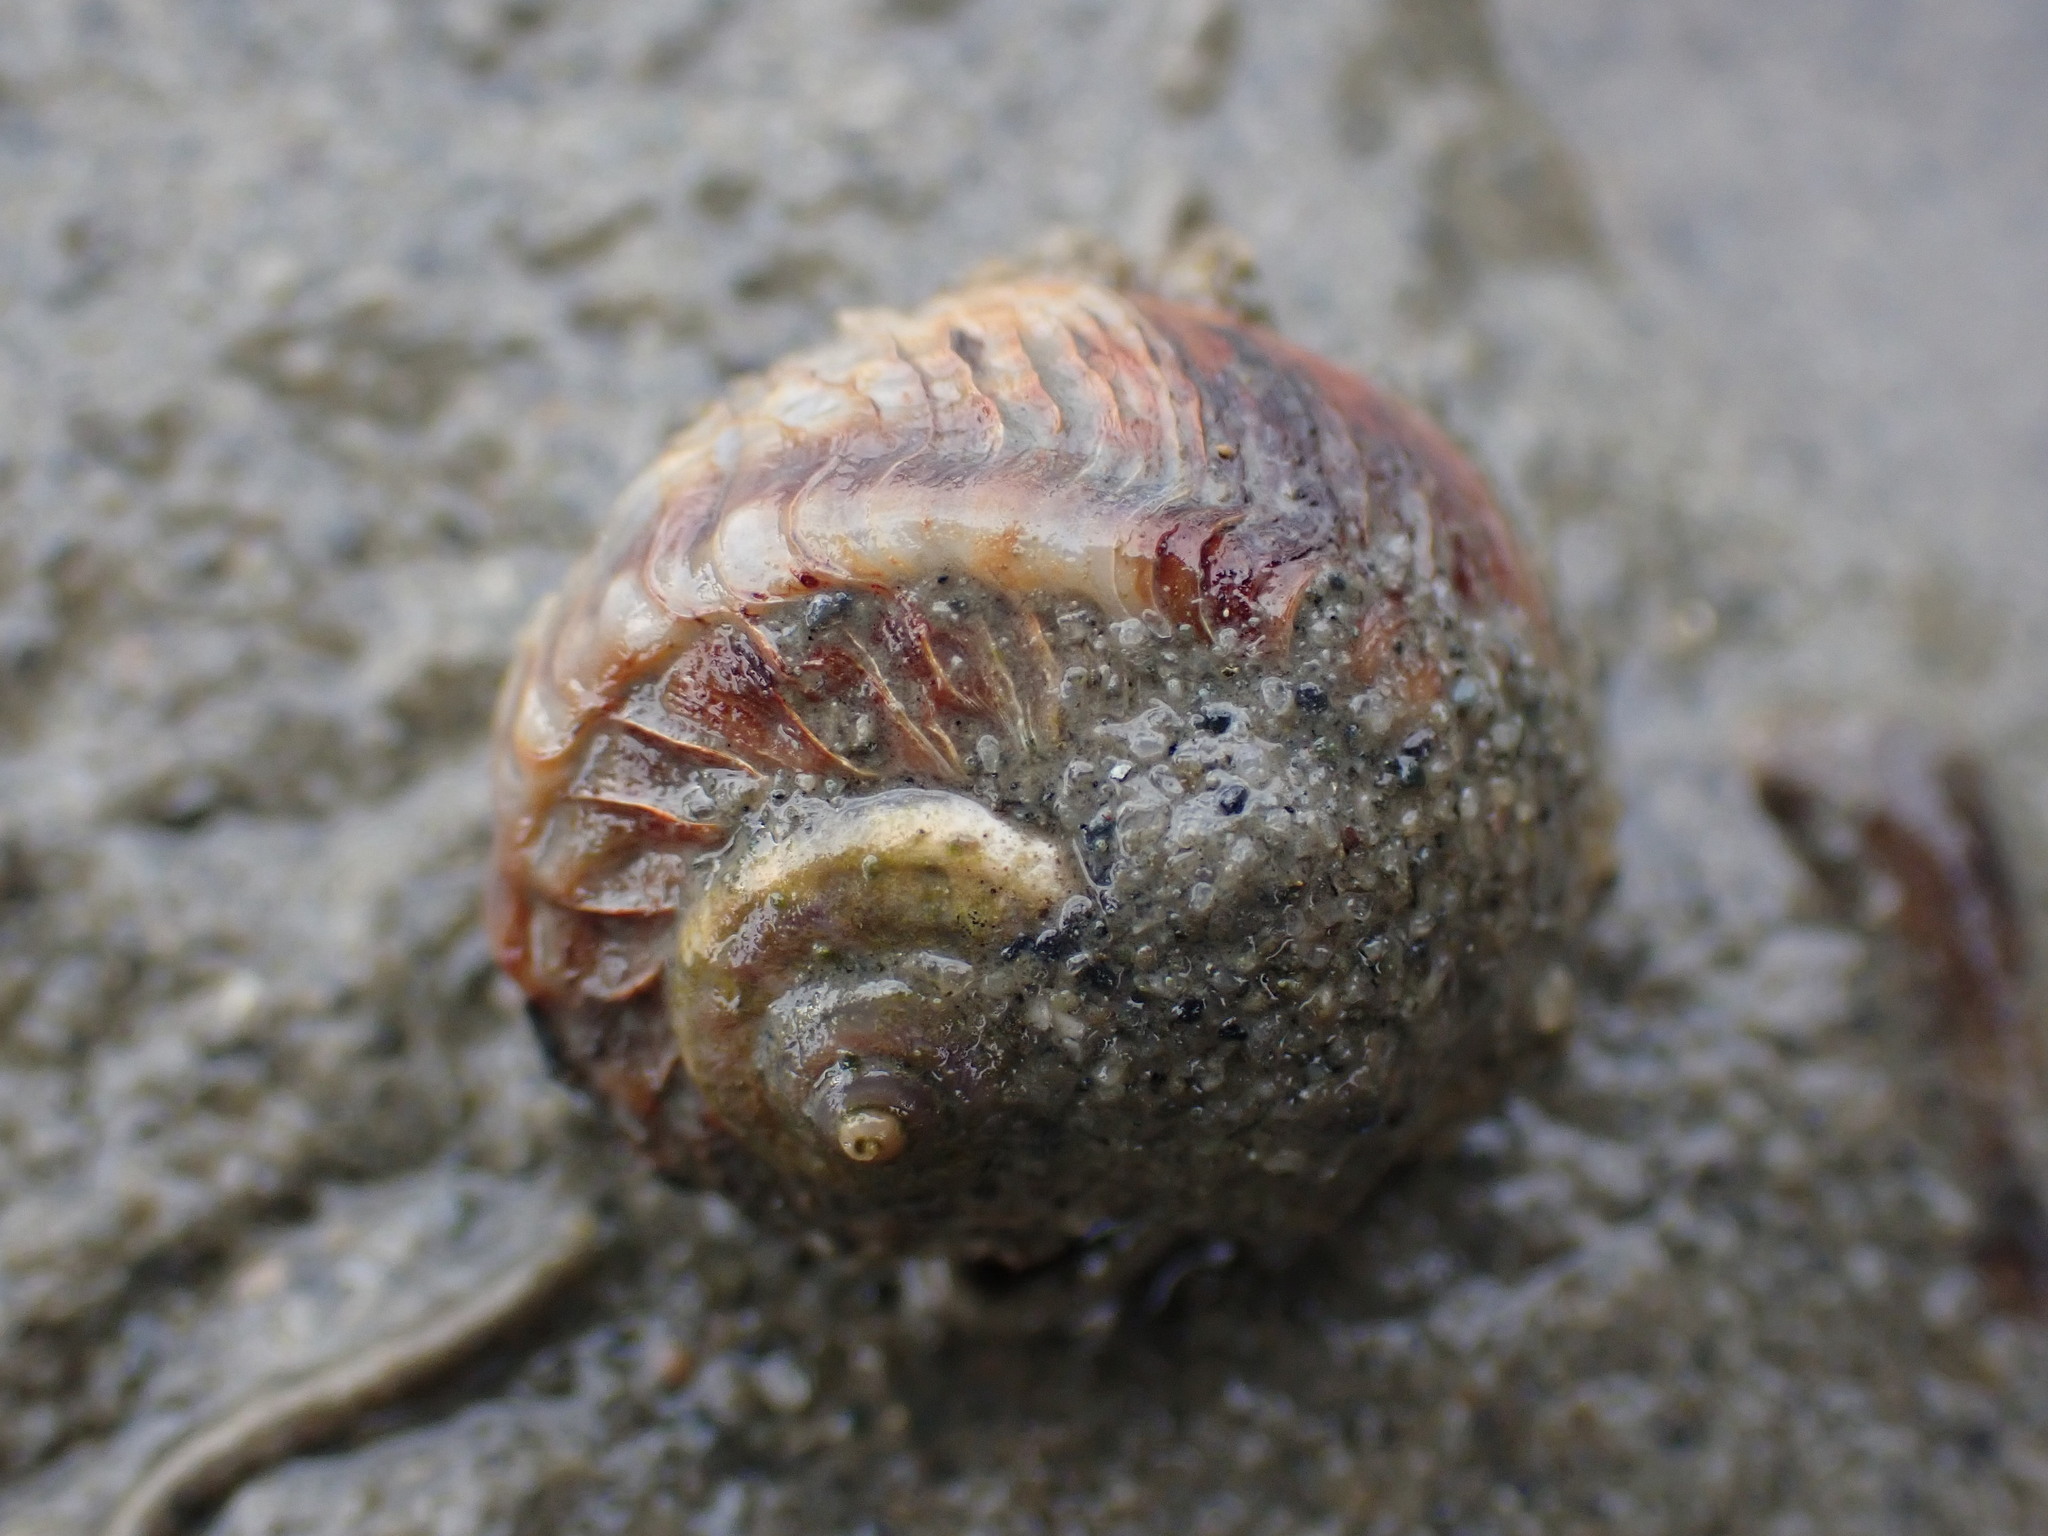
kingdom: Animalia
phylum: Mollusca
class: Gastropoda
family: Amphibolidae
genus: Amphibola
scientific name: Amphibola crenata
